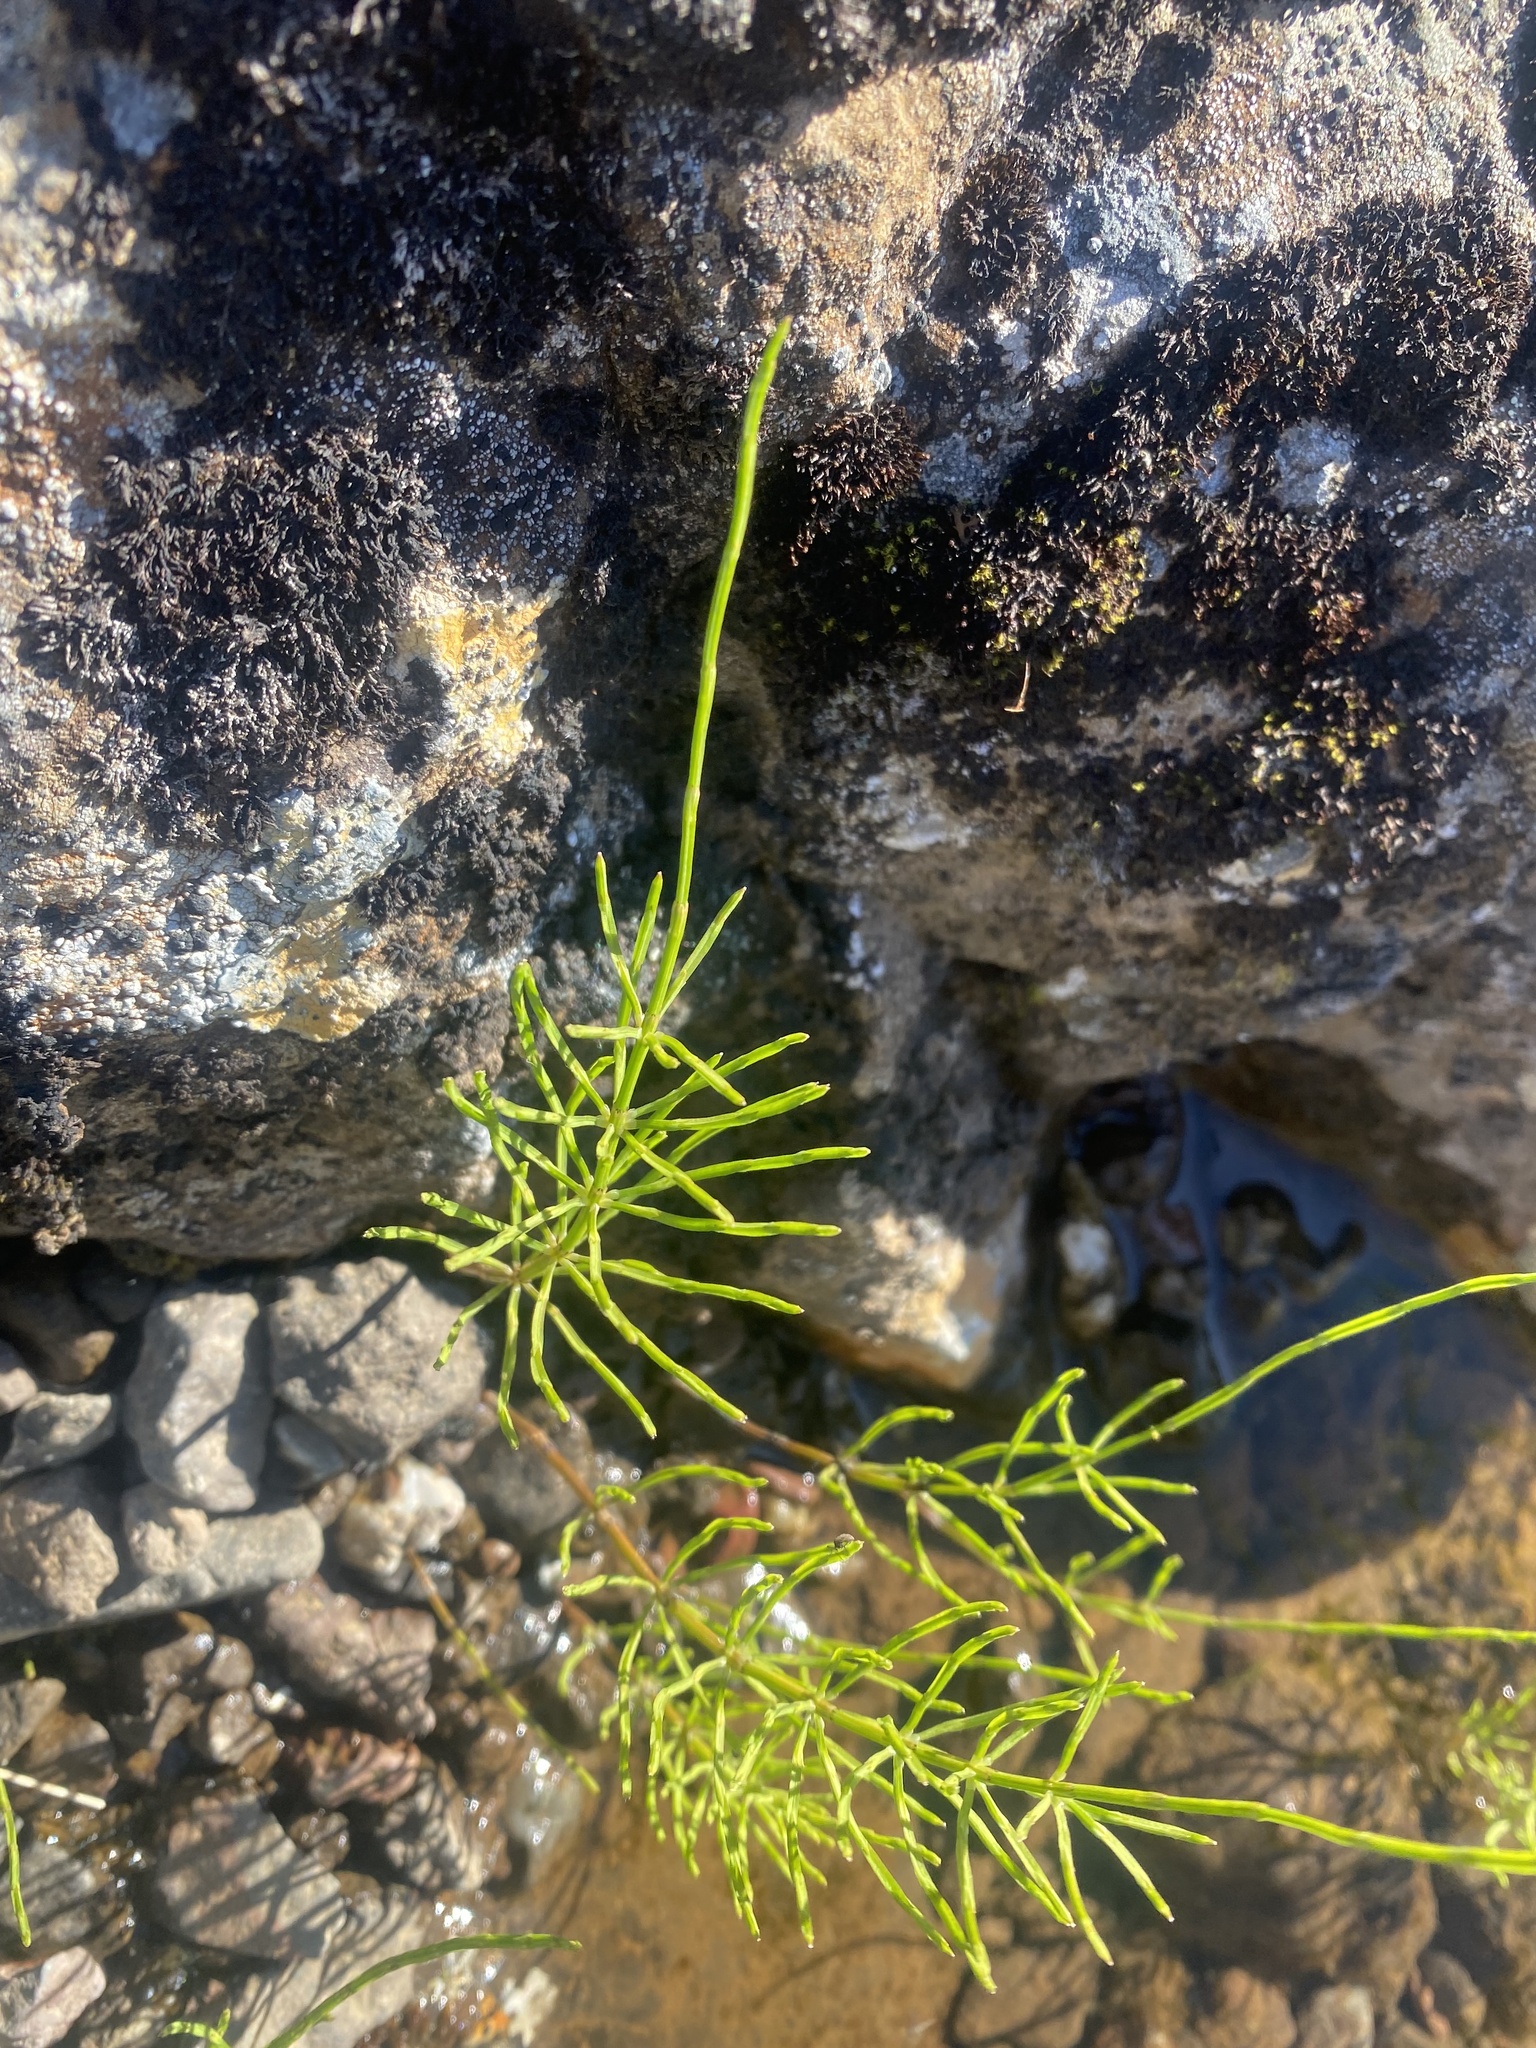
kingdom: Plantae
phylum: Tracheophyta
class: Polypodiopsida
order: Equisetales
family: Equisetaceae
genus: Equisetum
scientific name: Equisetum arvense
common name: Field horsetail
